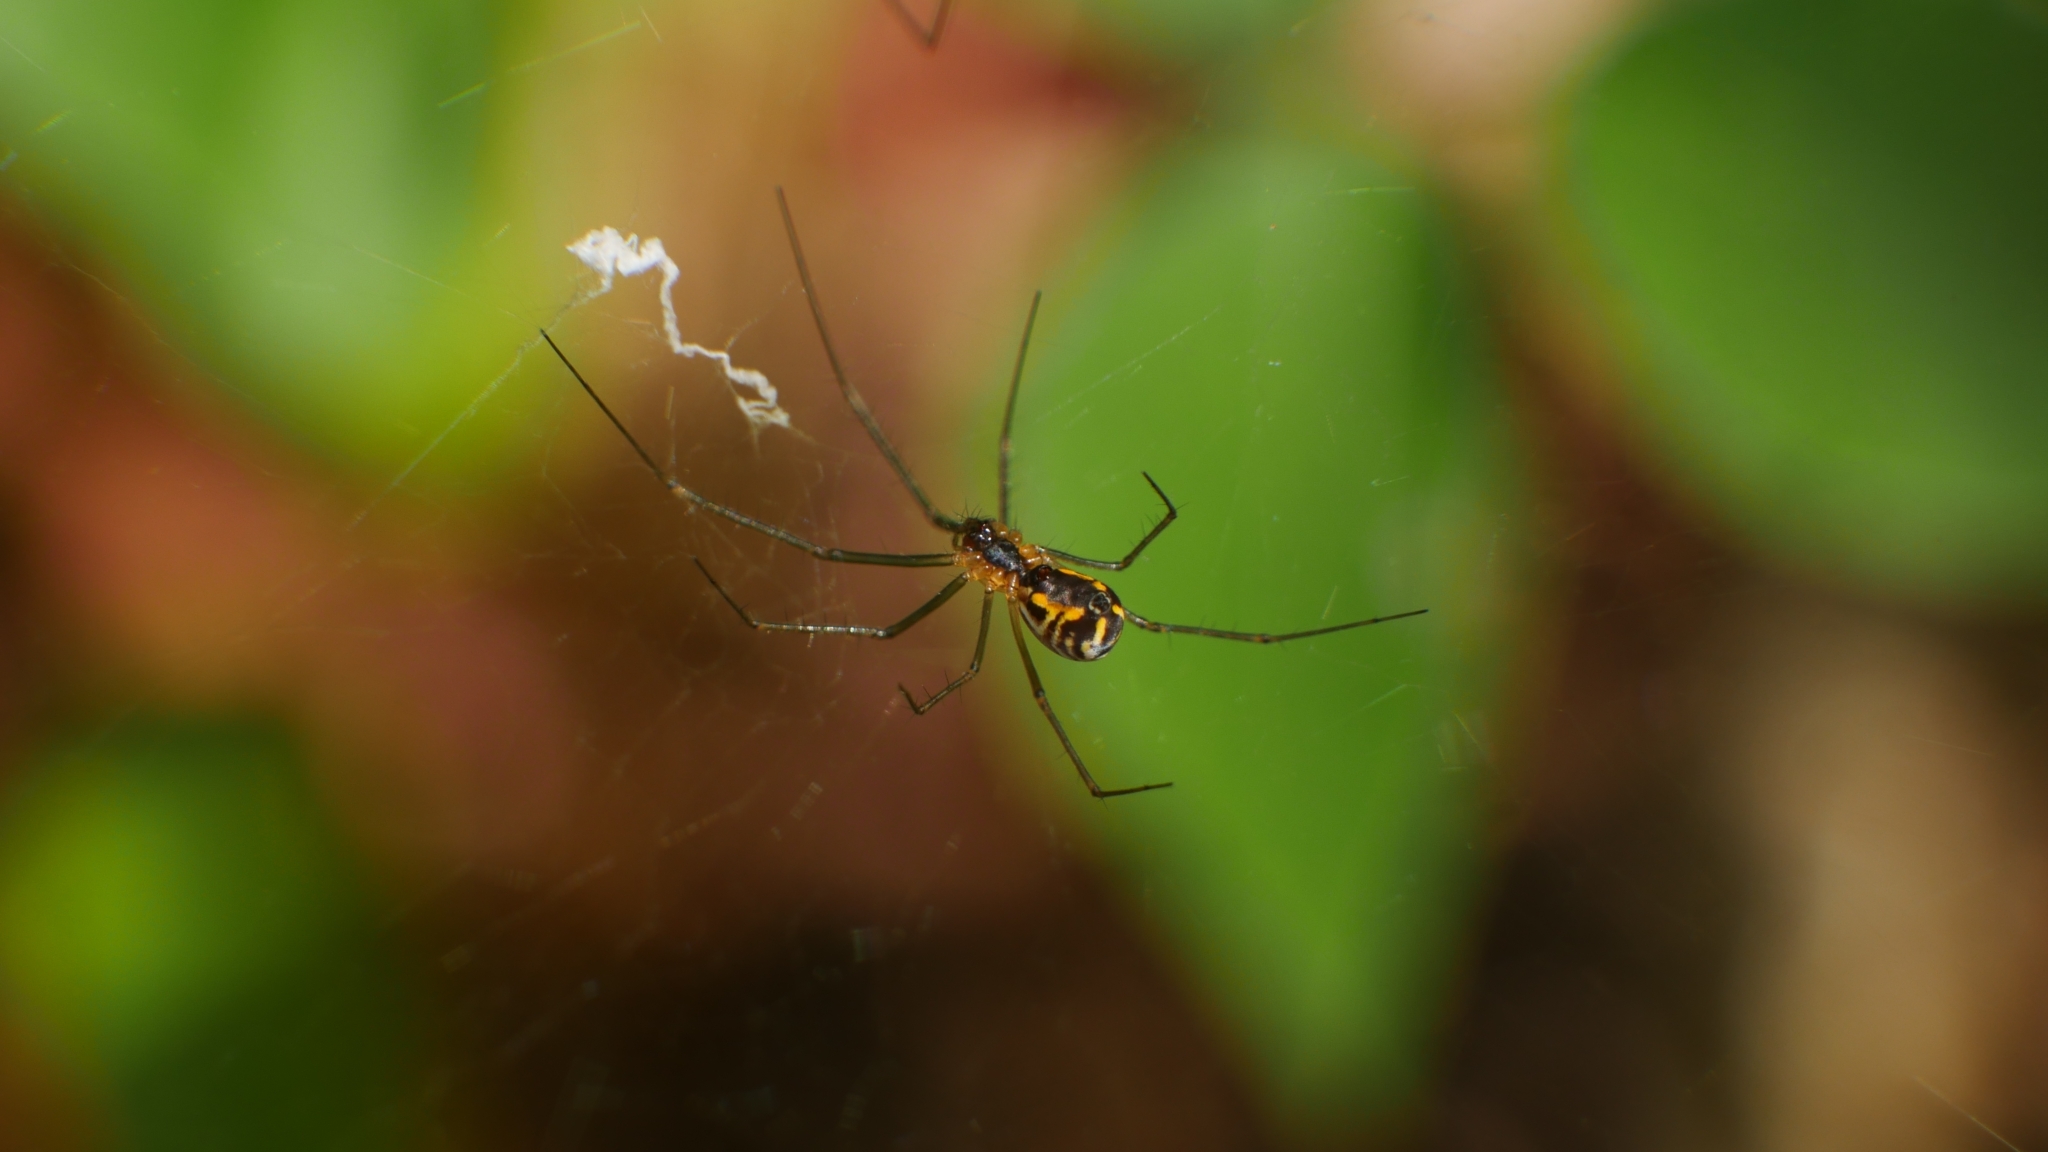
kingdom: Animalia
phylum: Arthropoda
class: Arachnida
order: Araneae
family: Linyphiidae
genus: Neriene
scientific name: Neriene radiata
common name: Filmy dome spider
